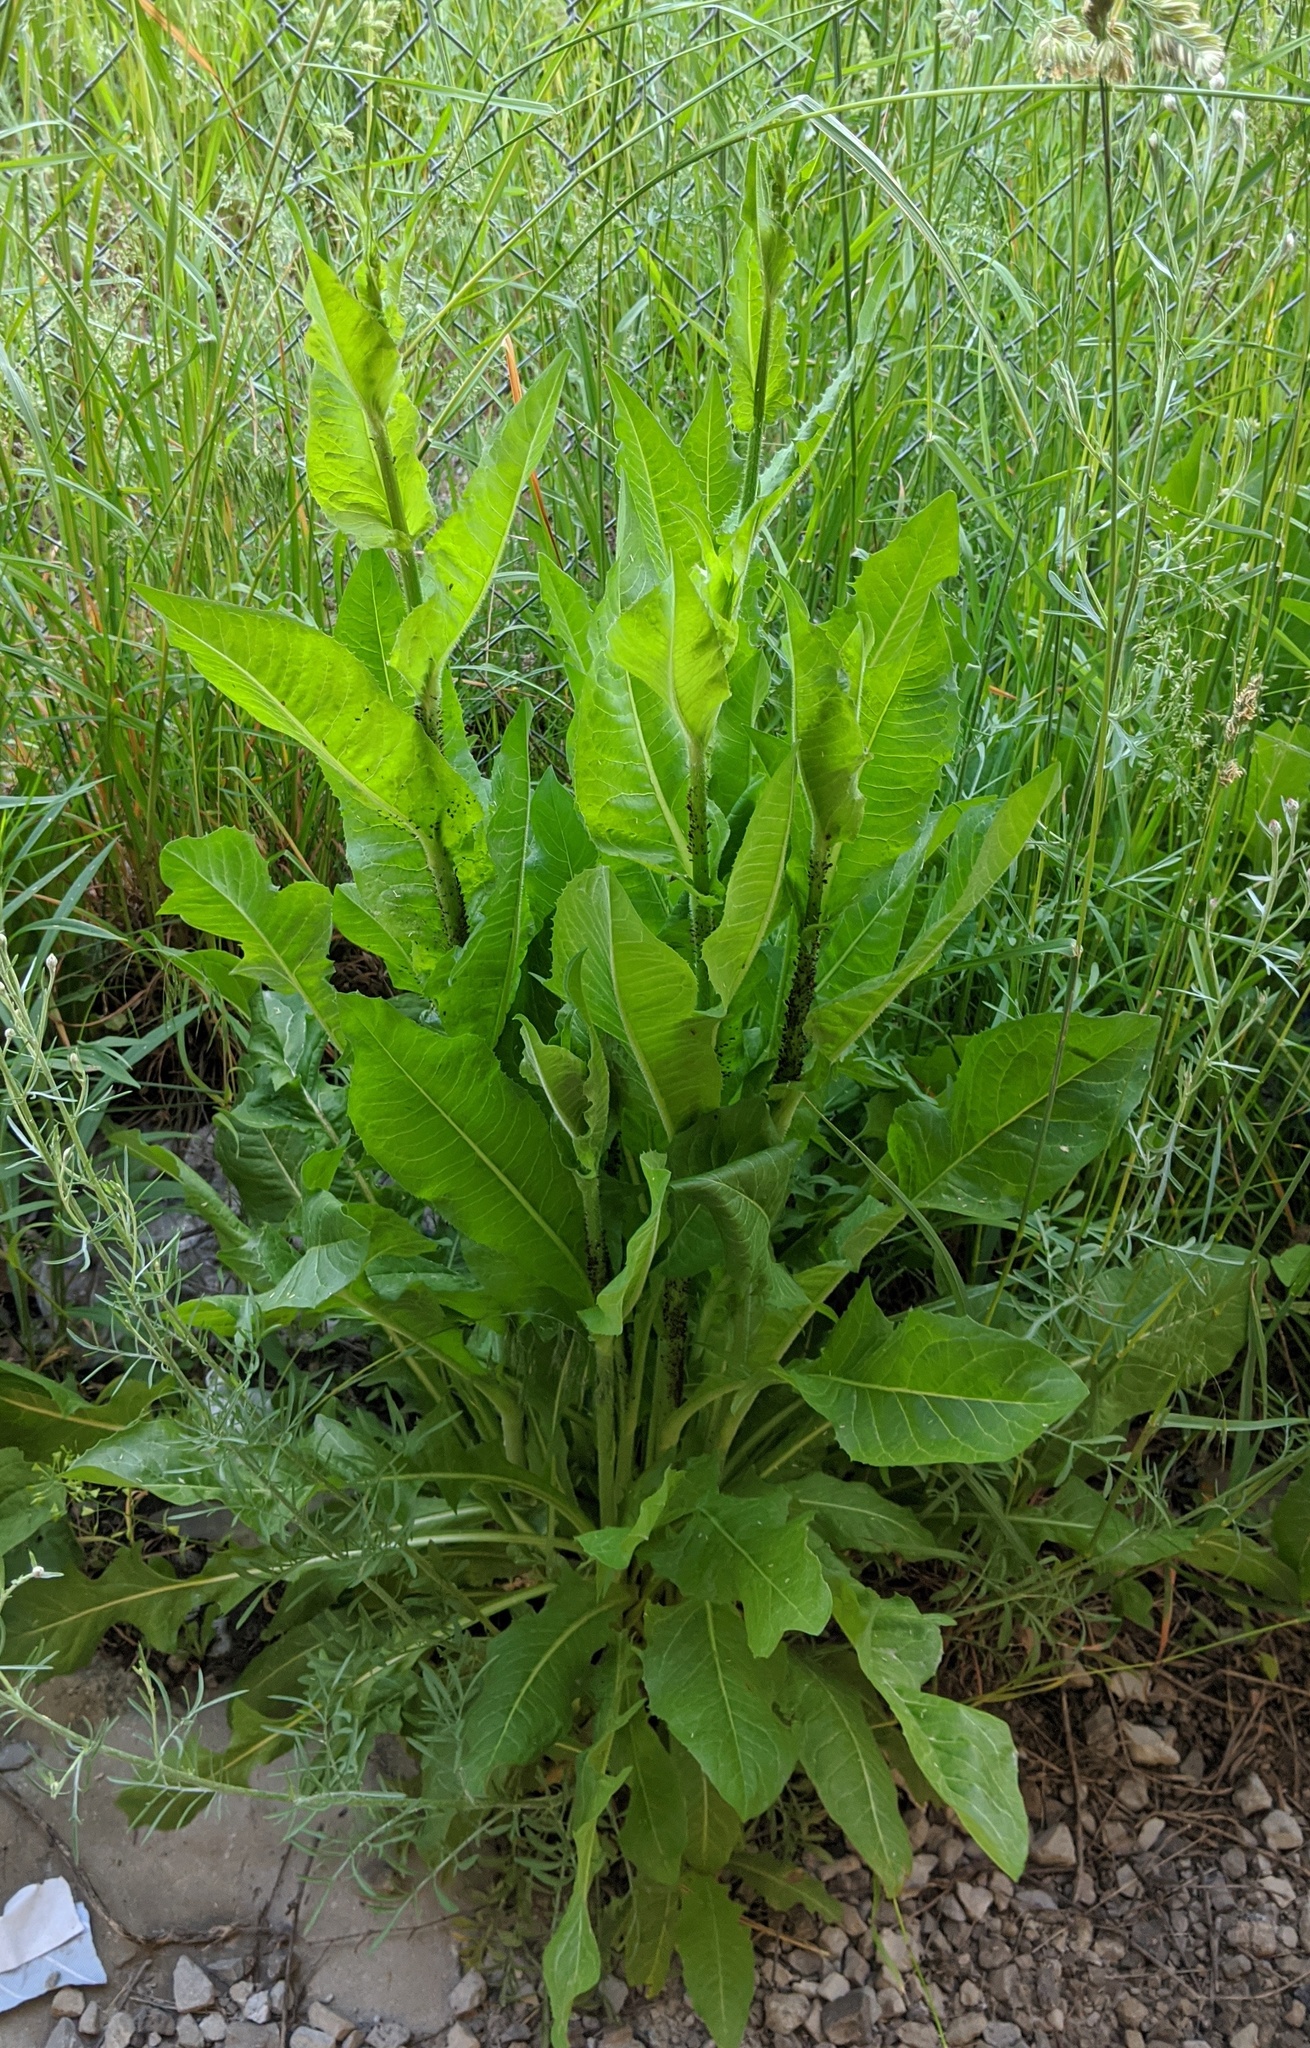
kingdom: Plantae
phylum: Tracheophyta
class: Magnoliopsida
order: Asterales
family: Asteraceae
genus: Cichorium
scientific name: Cichorium intybus
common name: Chicory
